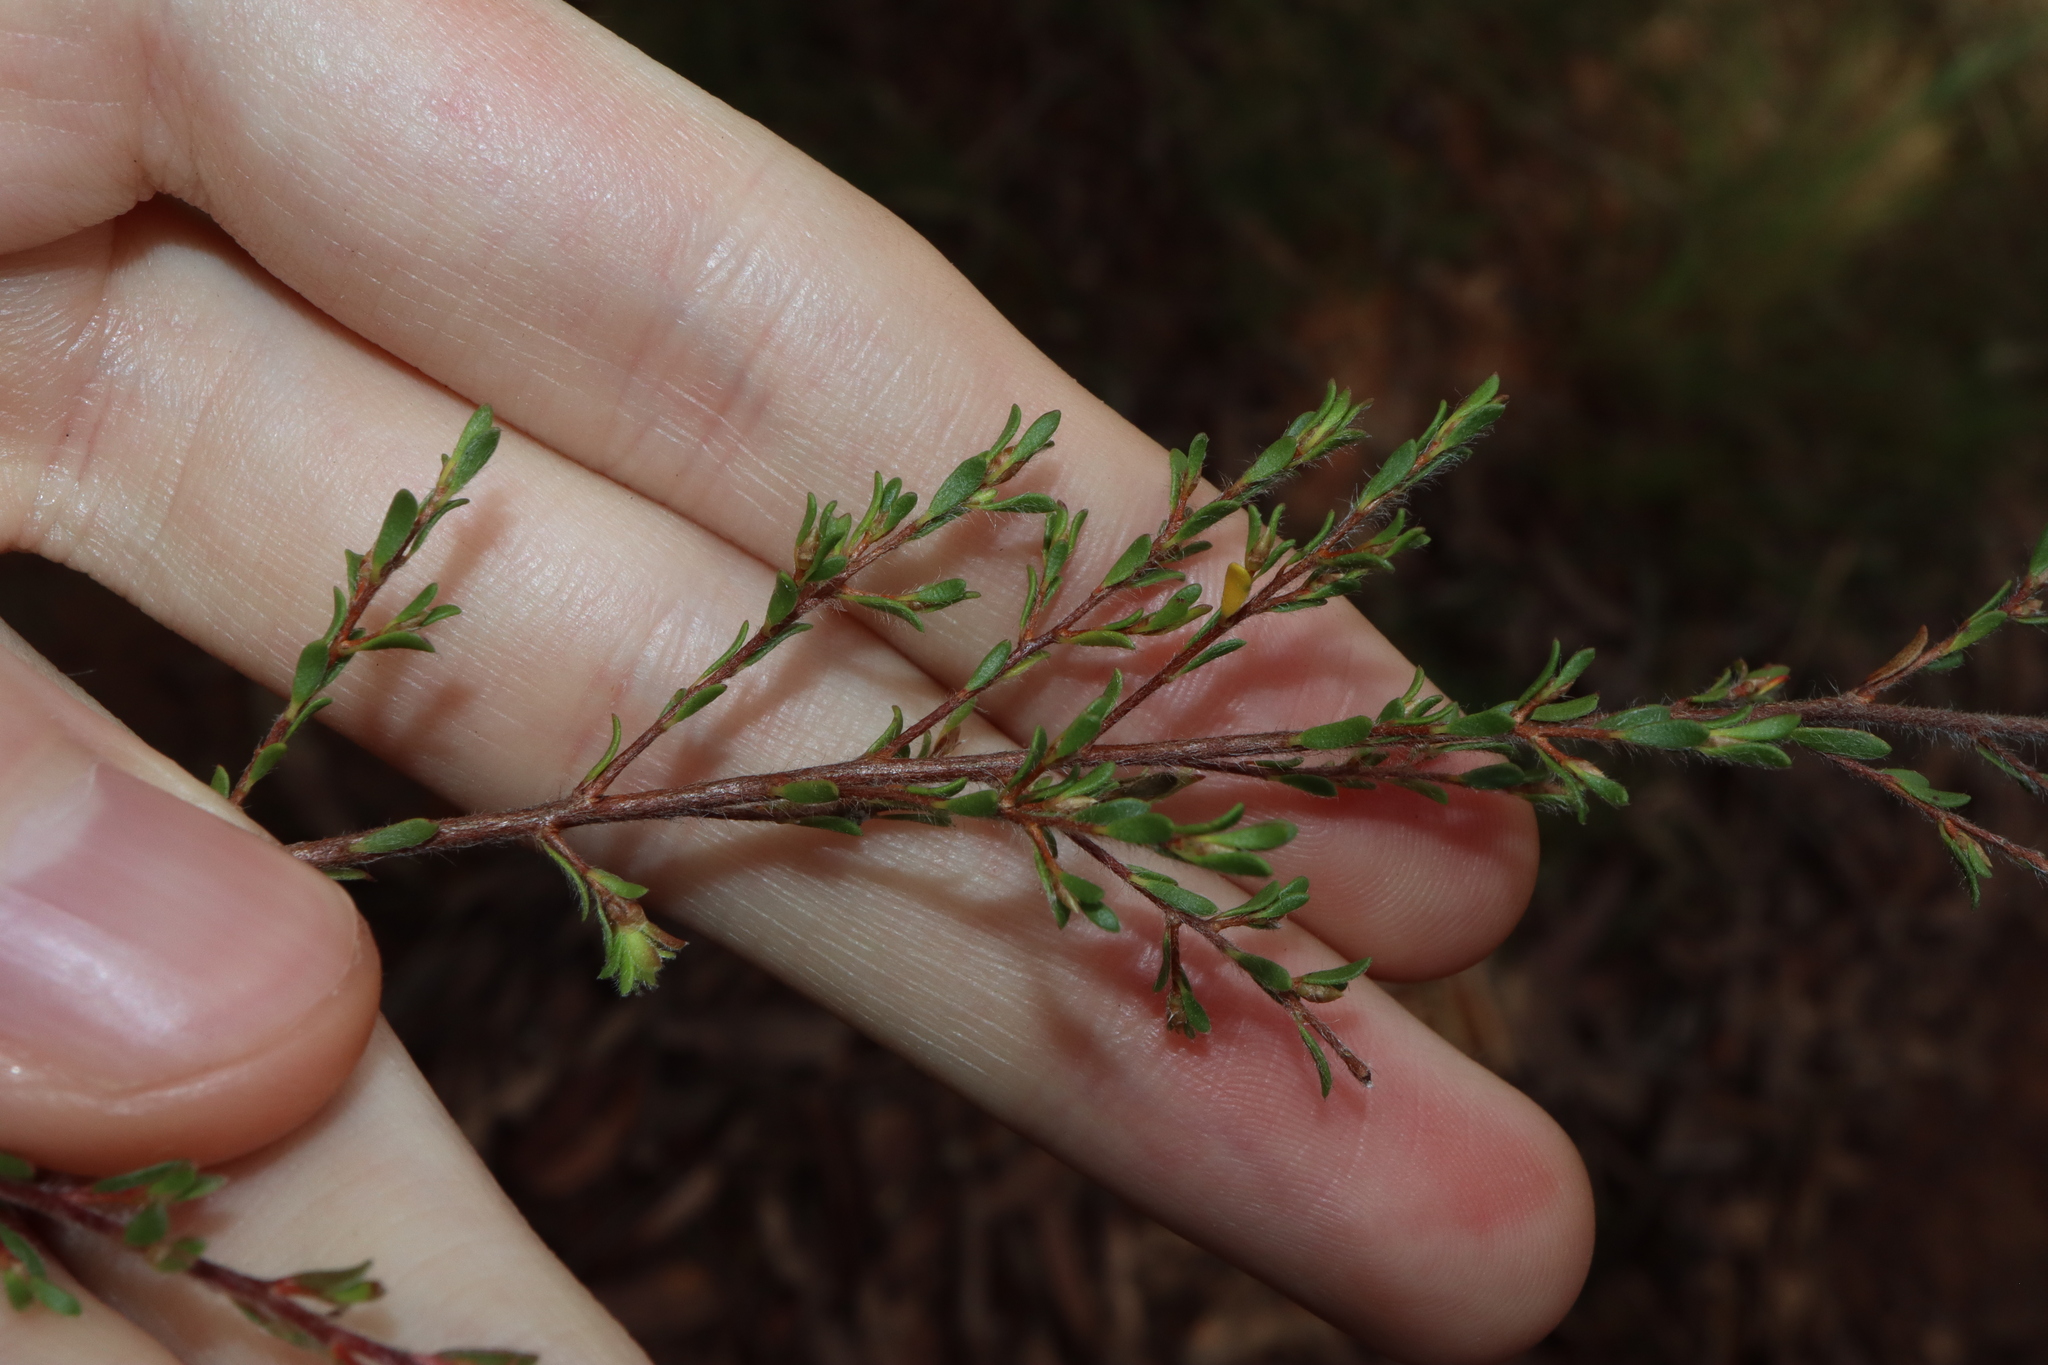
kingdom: Plantae
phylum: Tracheophyta
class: Magnoliopsida
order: Myrtales
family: Myrtaceae
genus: Leptospermum
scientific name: Leptospermum parvifolium
